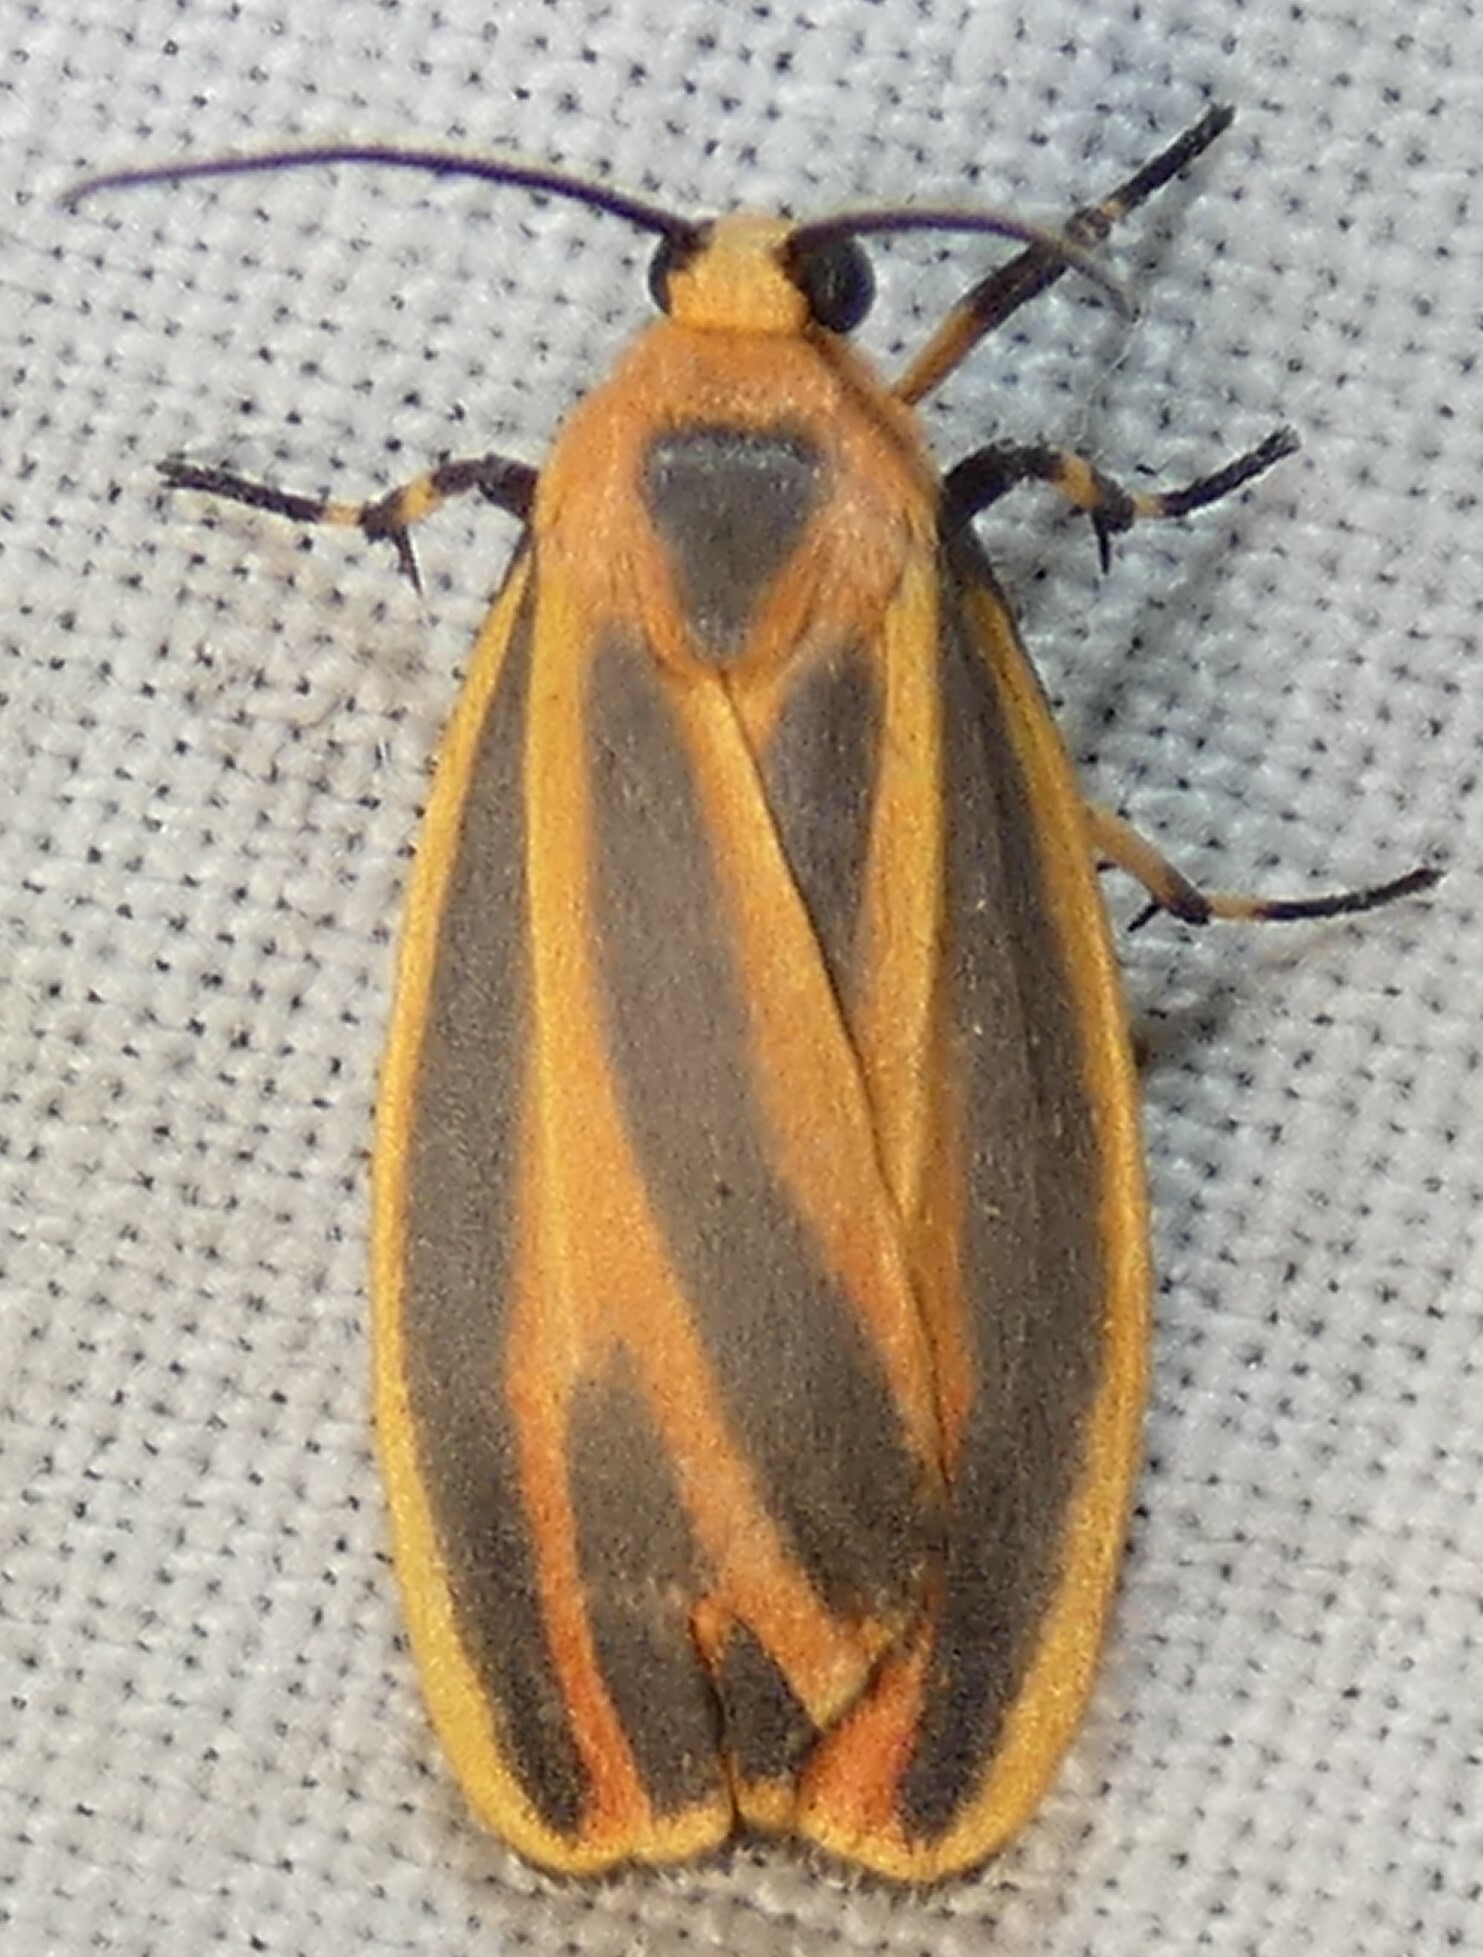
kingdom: Animalia
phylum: Arthropoda
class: Insecta
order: Lepidoptera
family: Erebidae
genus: Hypoprepia
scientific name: Hypoprepia fucosa
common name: Painted lichen moth
